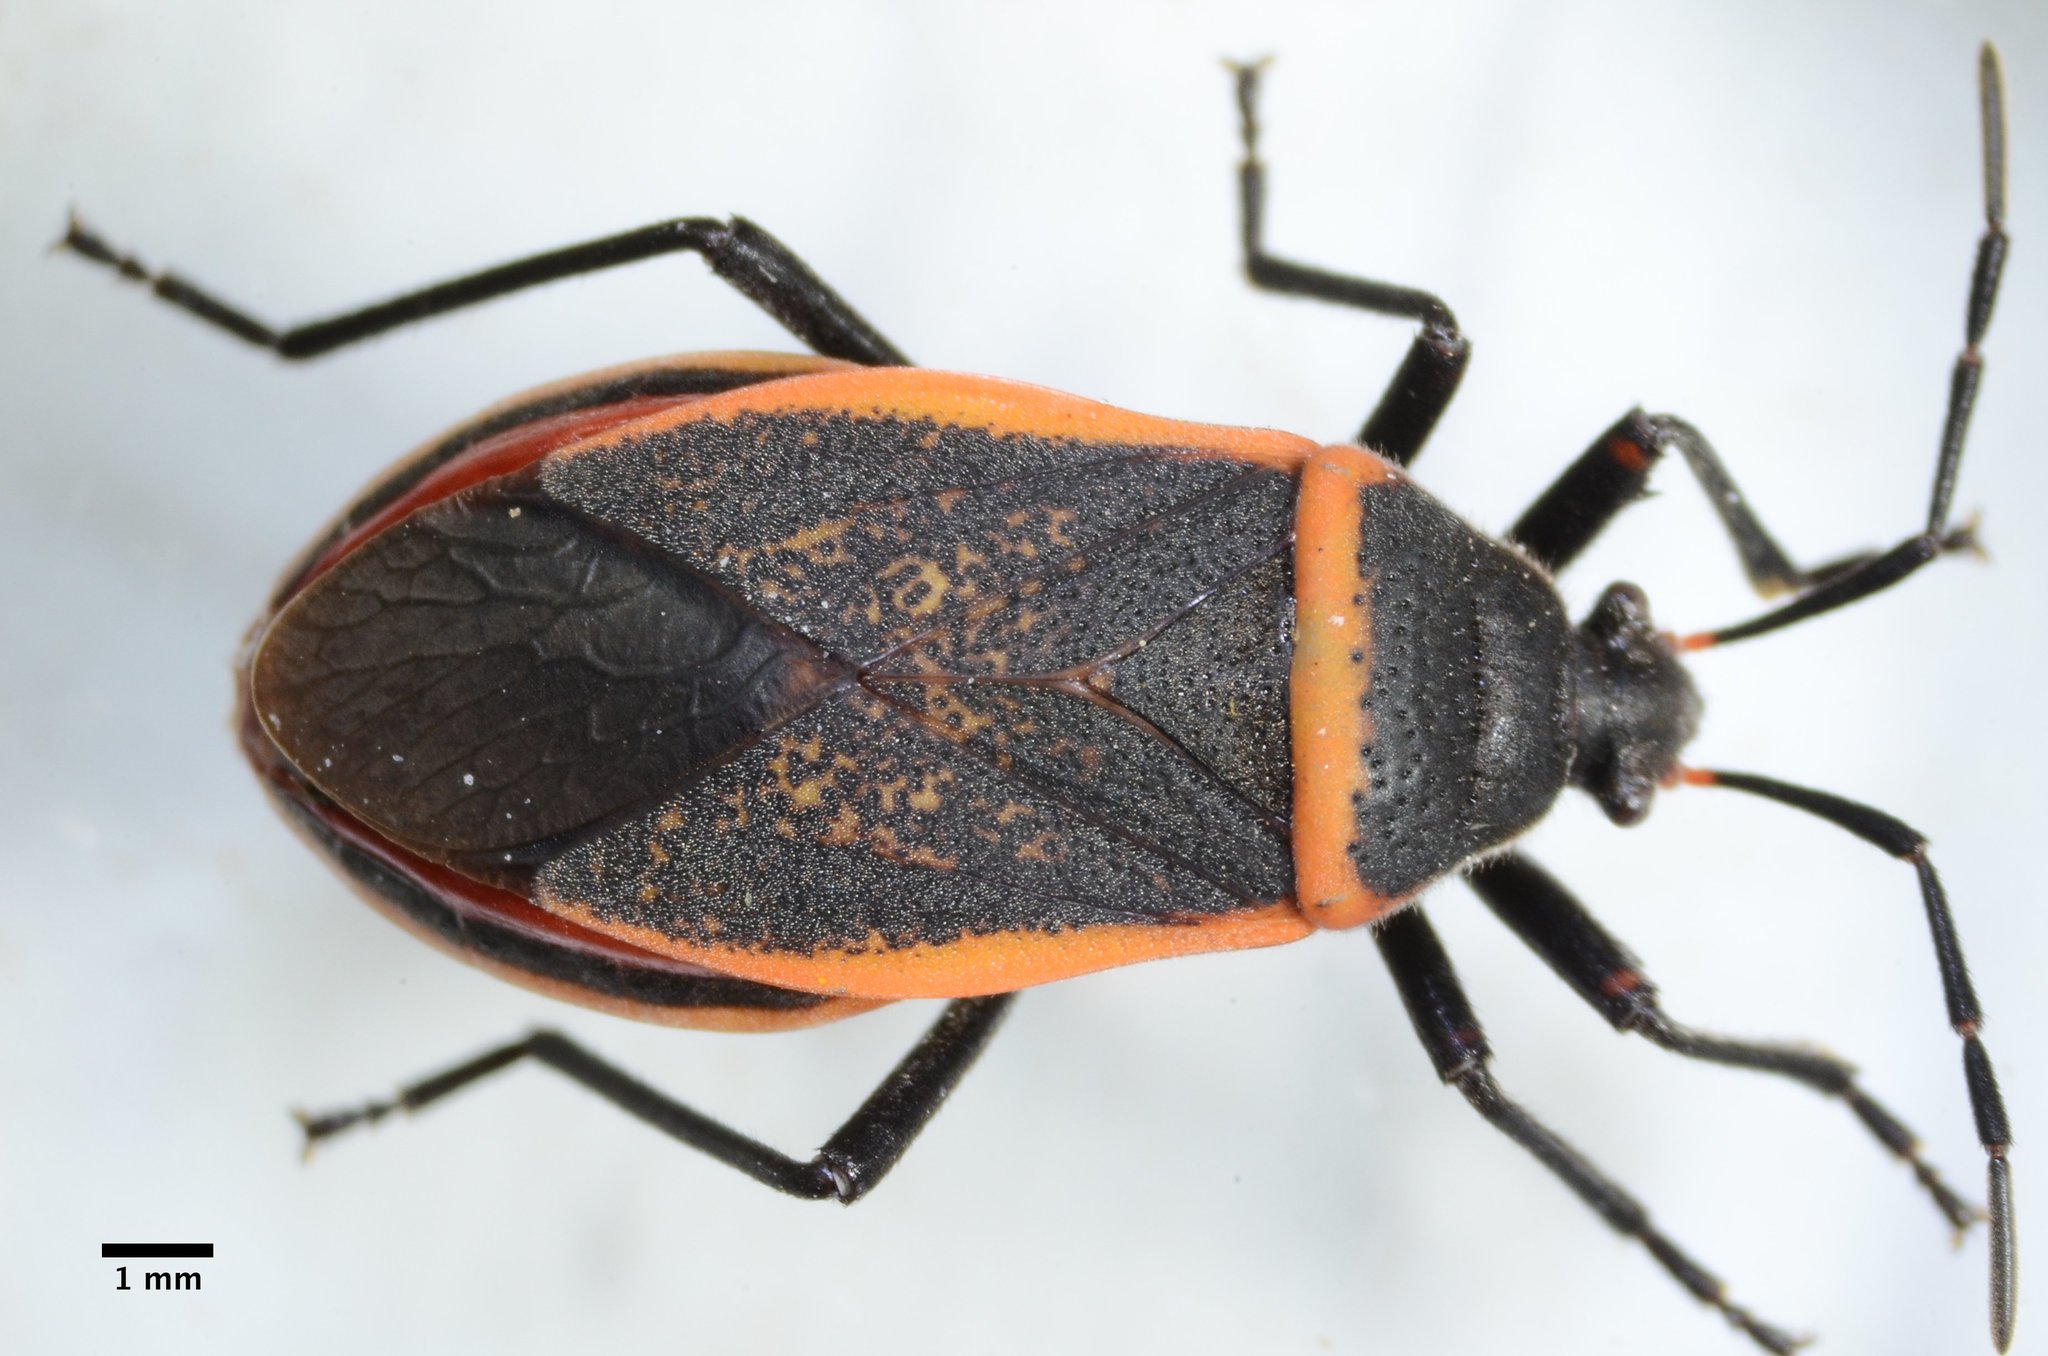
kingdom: Animalia
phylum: Arthropoda
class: Insecta
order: Hemiptera
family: Largidae
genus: Largus
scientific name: Largus californicus
